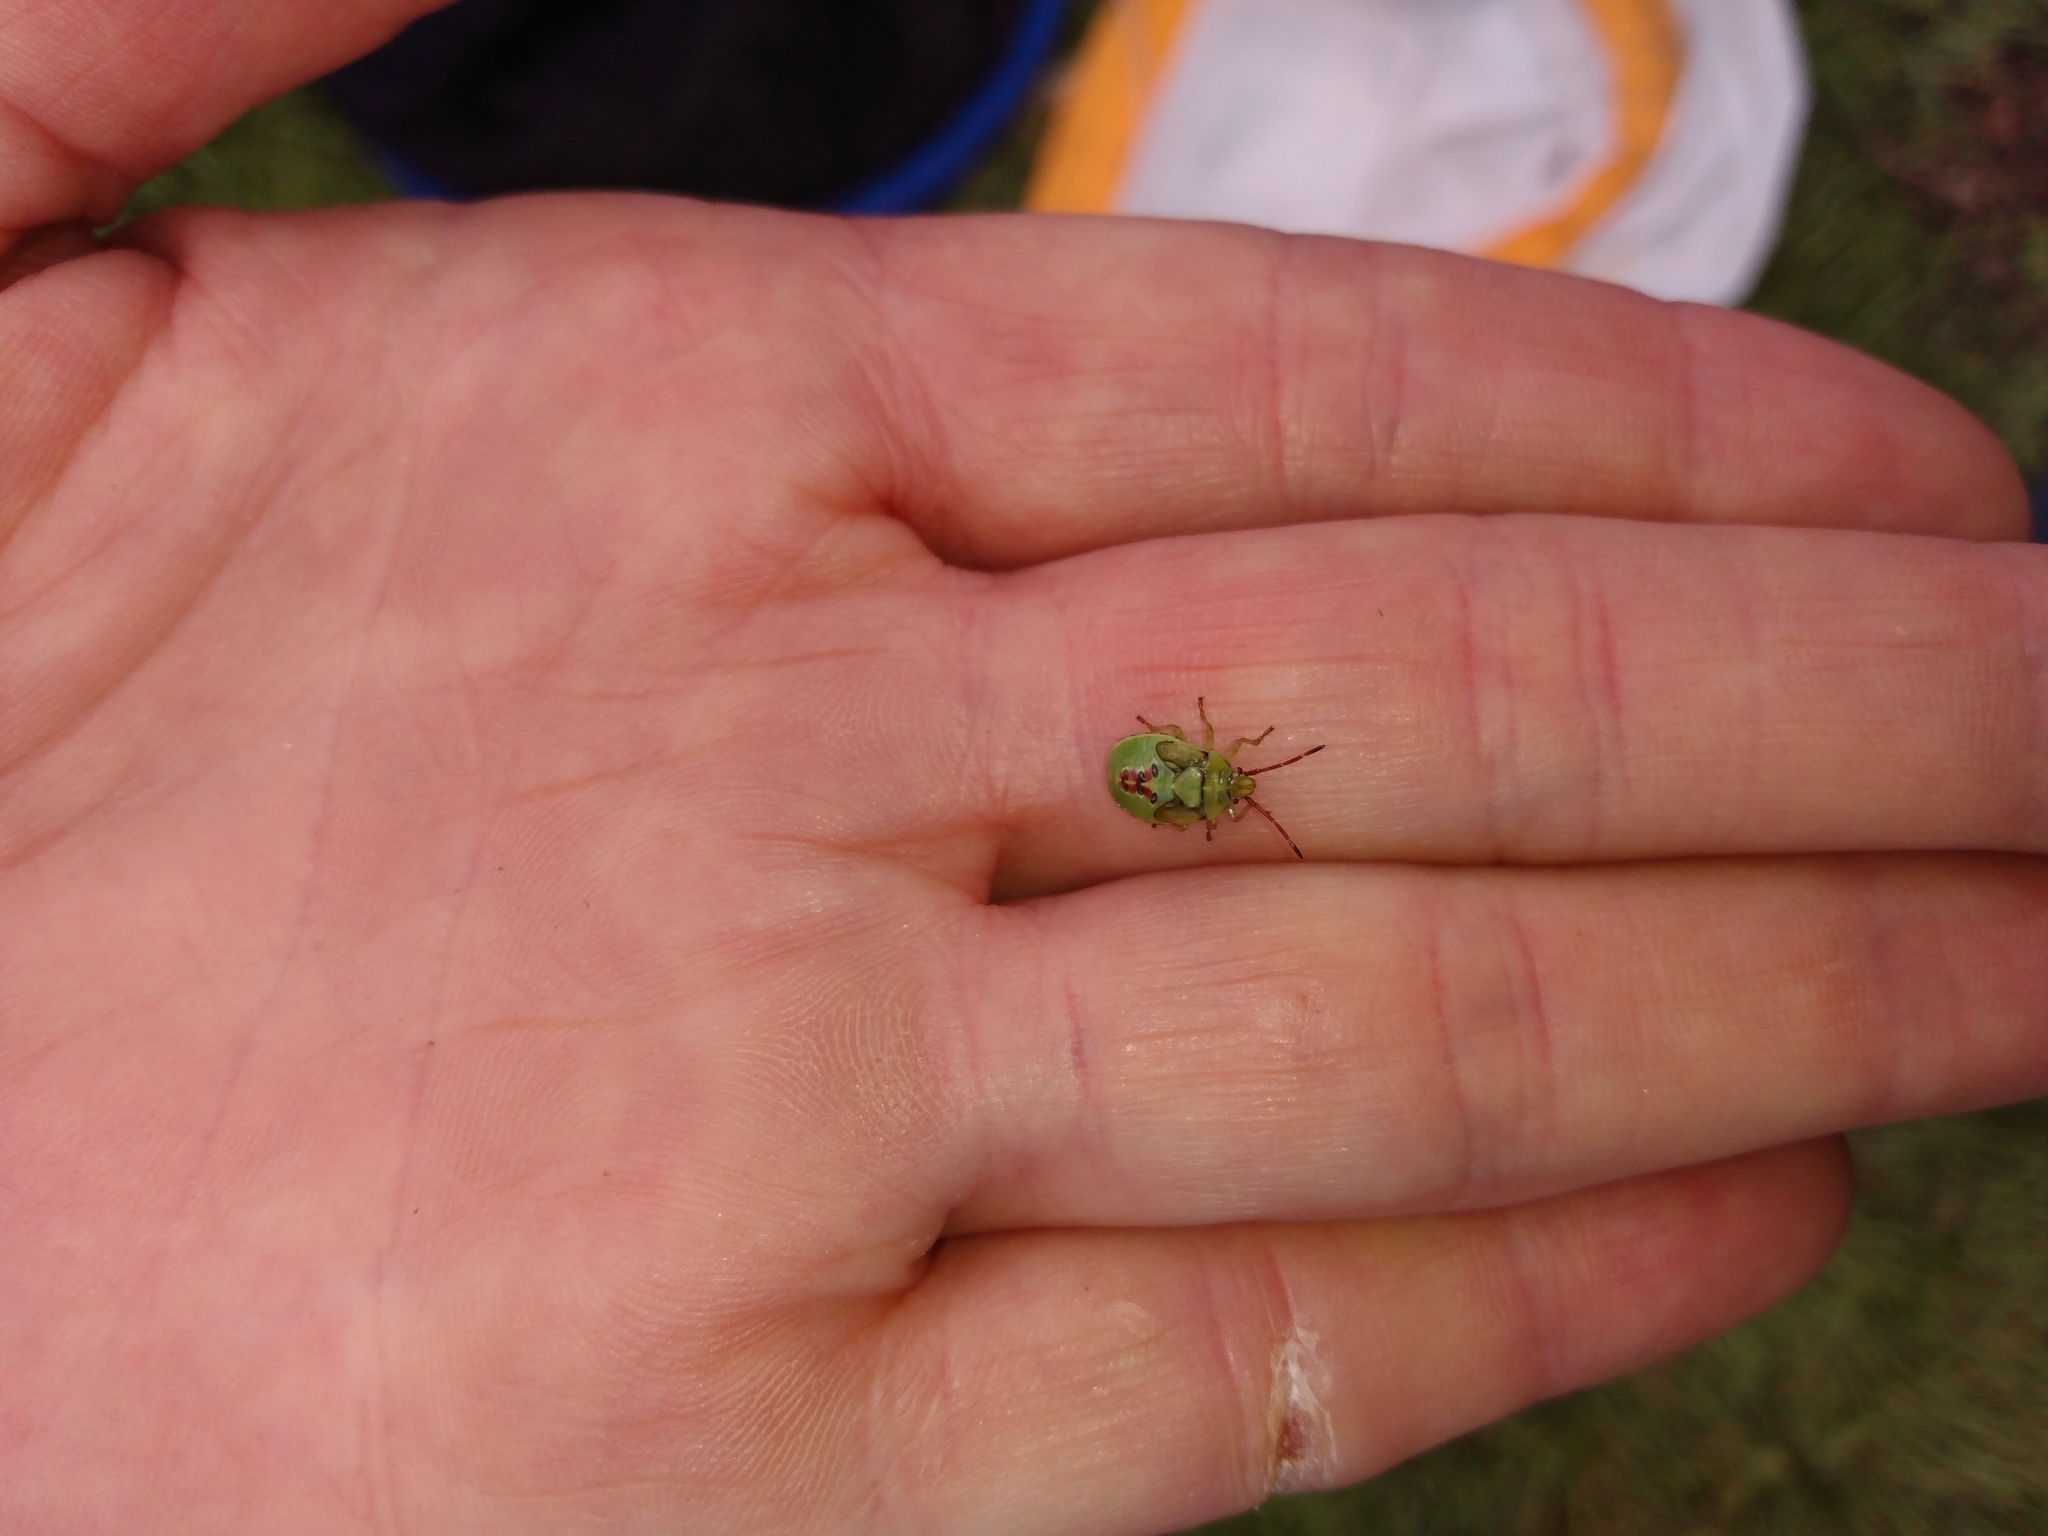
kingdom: Animalia
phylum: Arthropoda
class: Insecta
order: Hemiptera
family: Acanthosomatidae
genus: Elasmostethus
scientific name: Elasmostethus interstinctus
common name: Birch shieldbug
